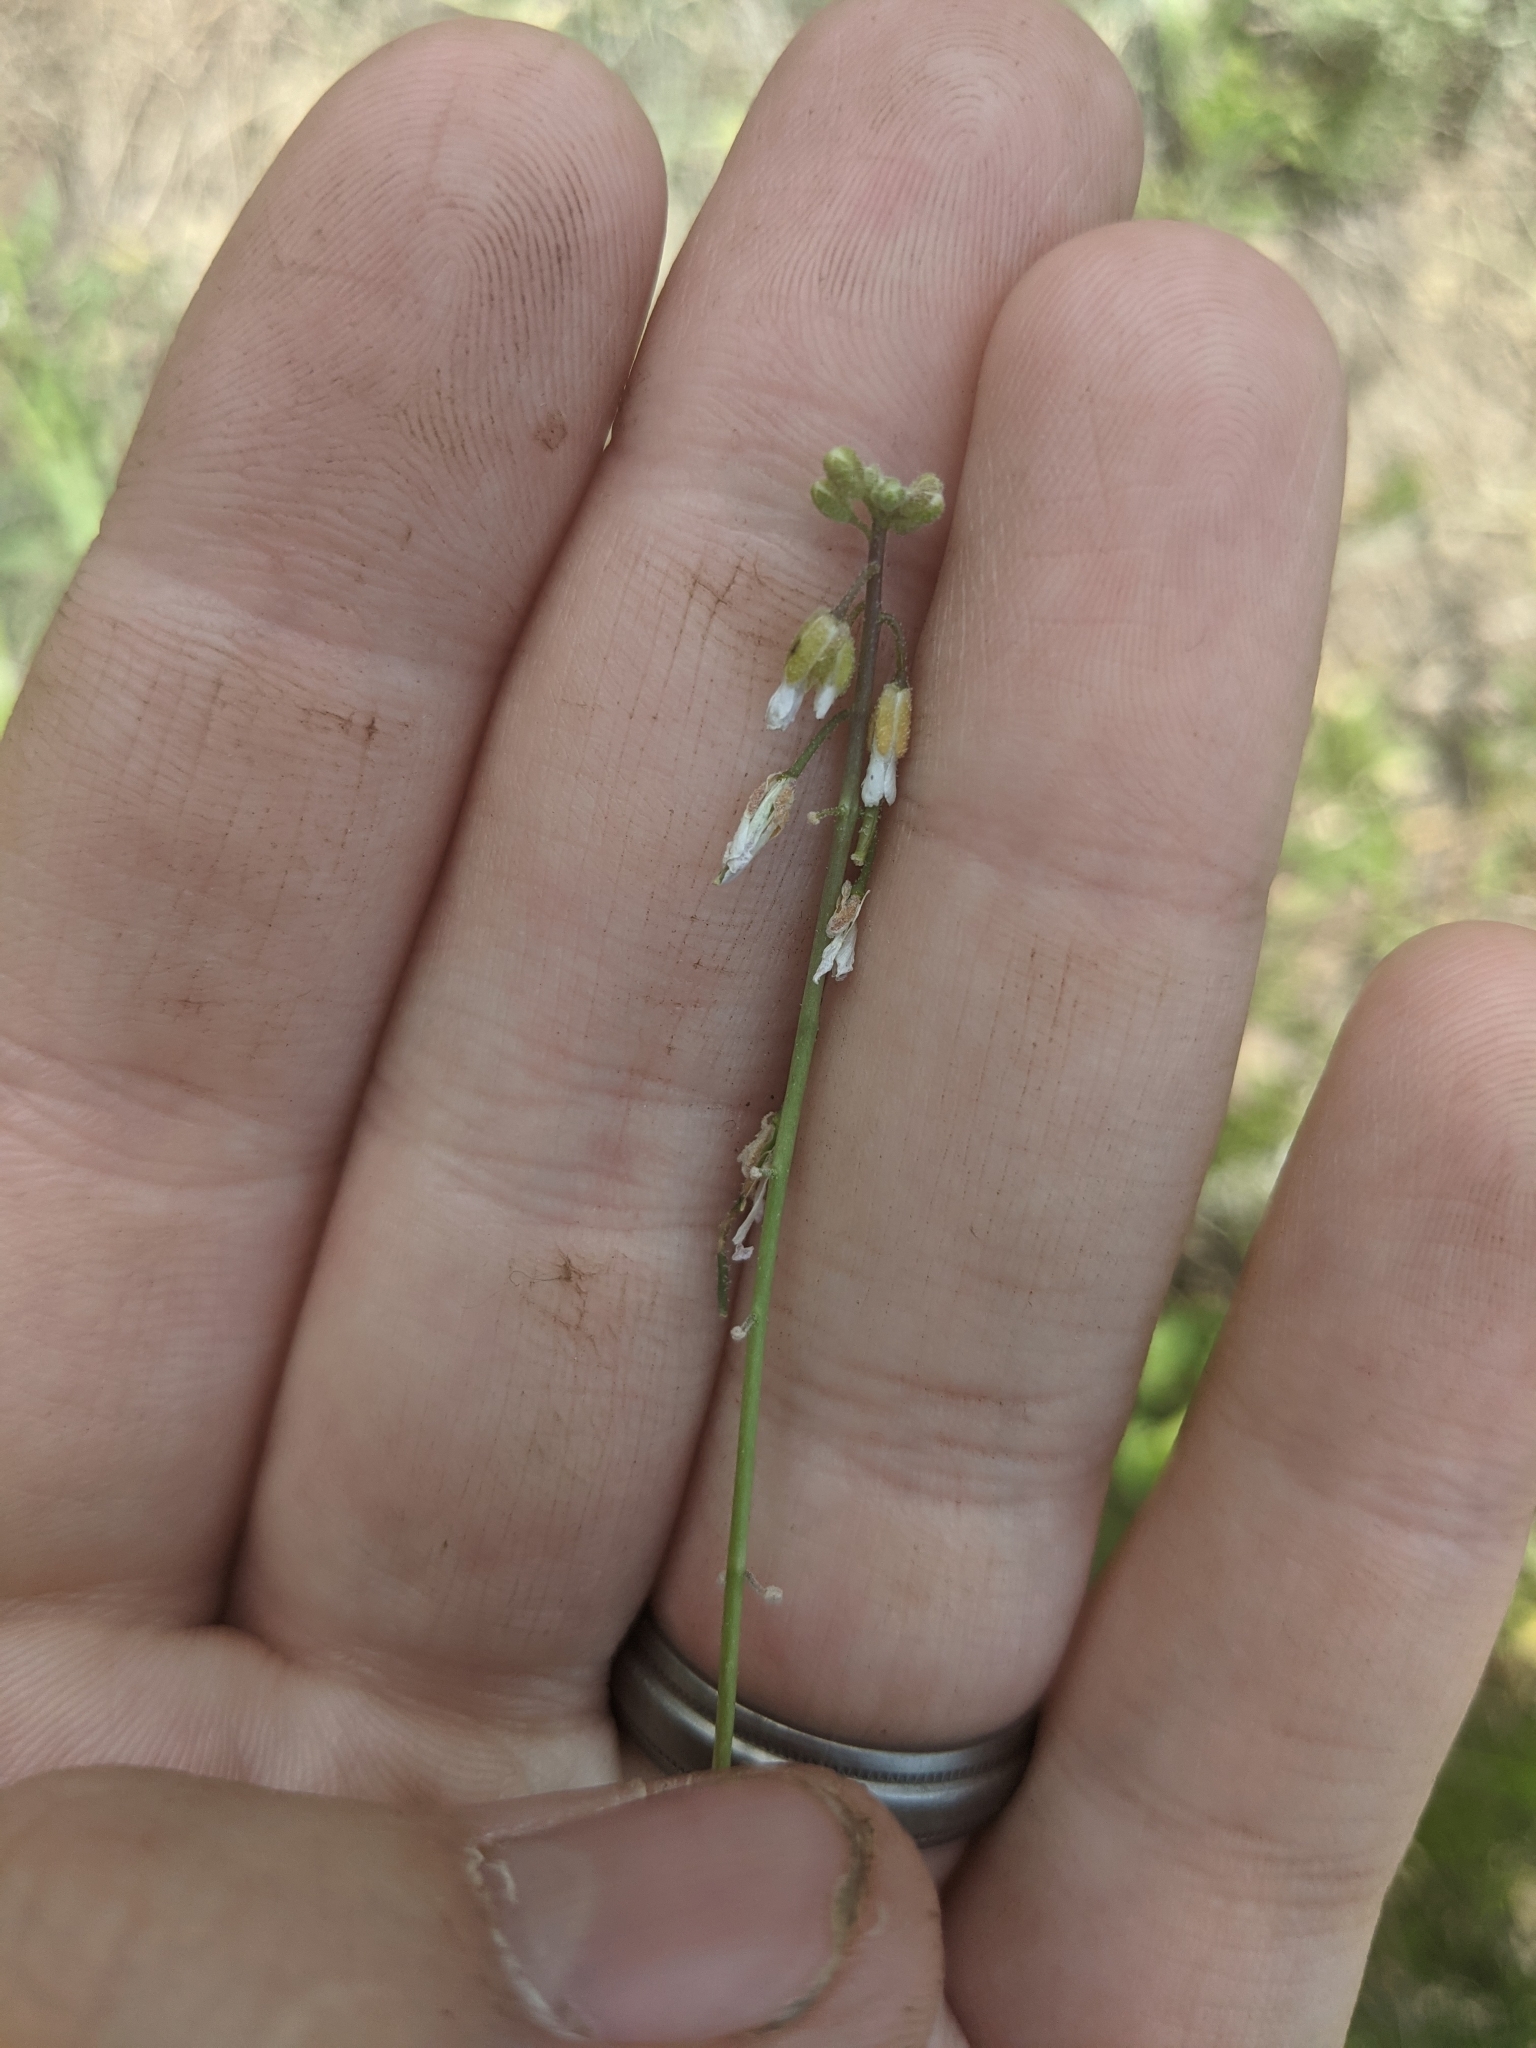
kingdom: Plantae
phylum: Tracheophyta
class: Magnoliopsida
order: Brassicales
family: Brassicaceae
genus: Boechera
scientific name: Boechera retrofracta
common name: Dangling suncress
